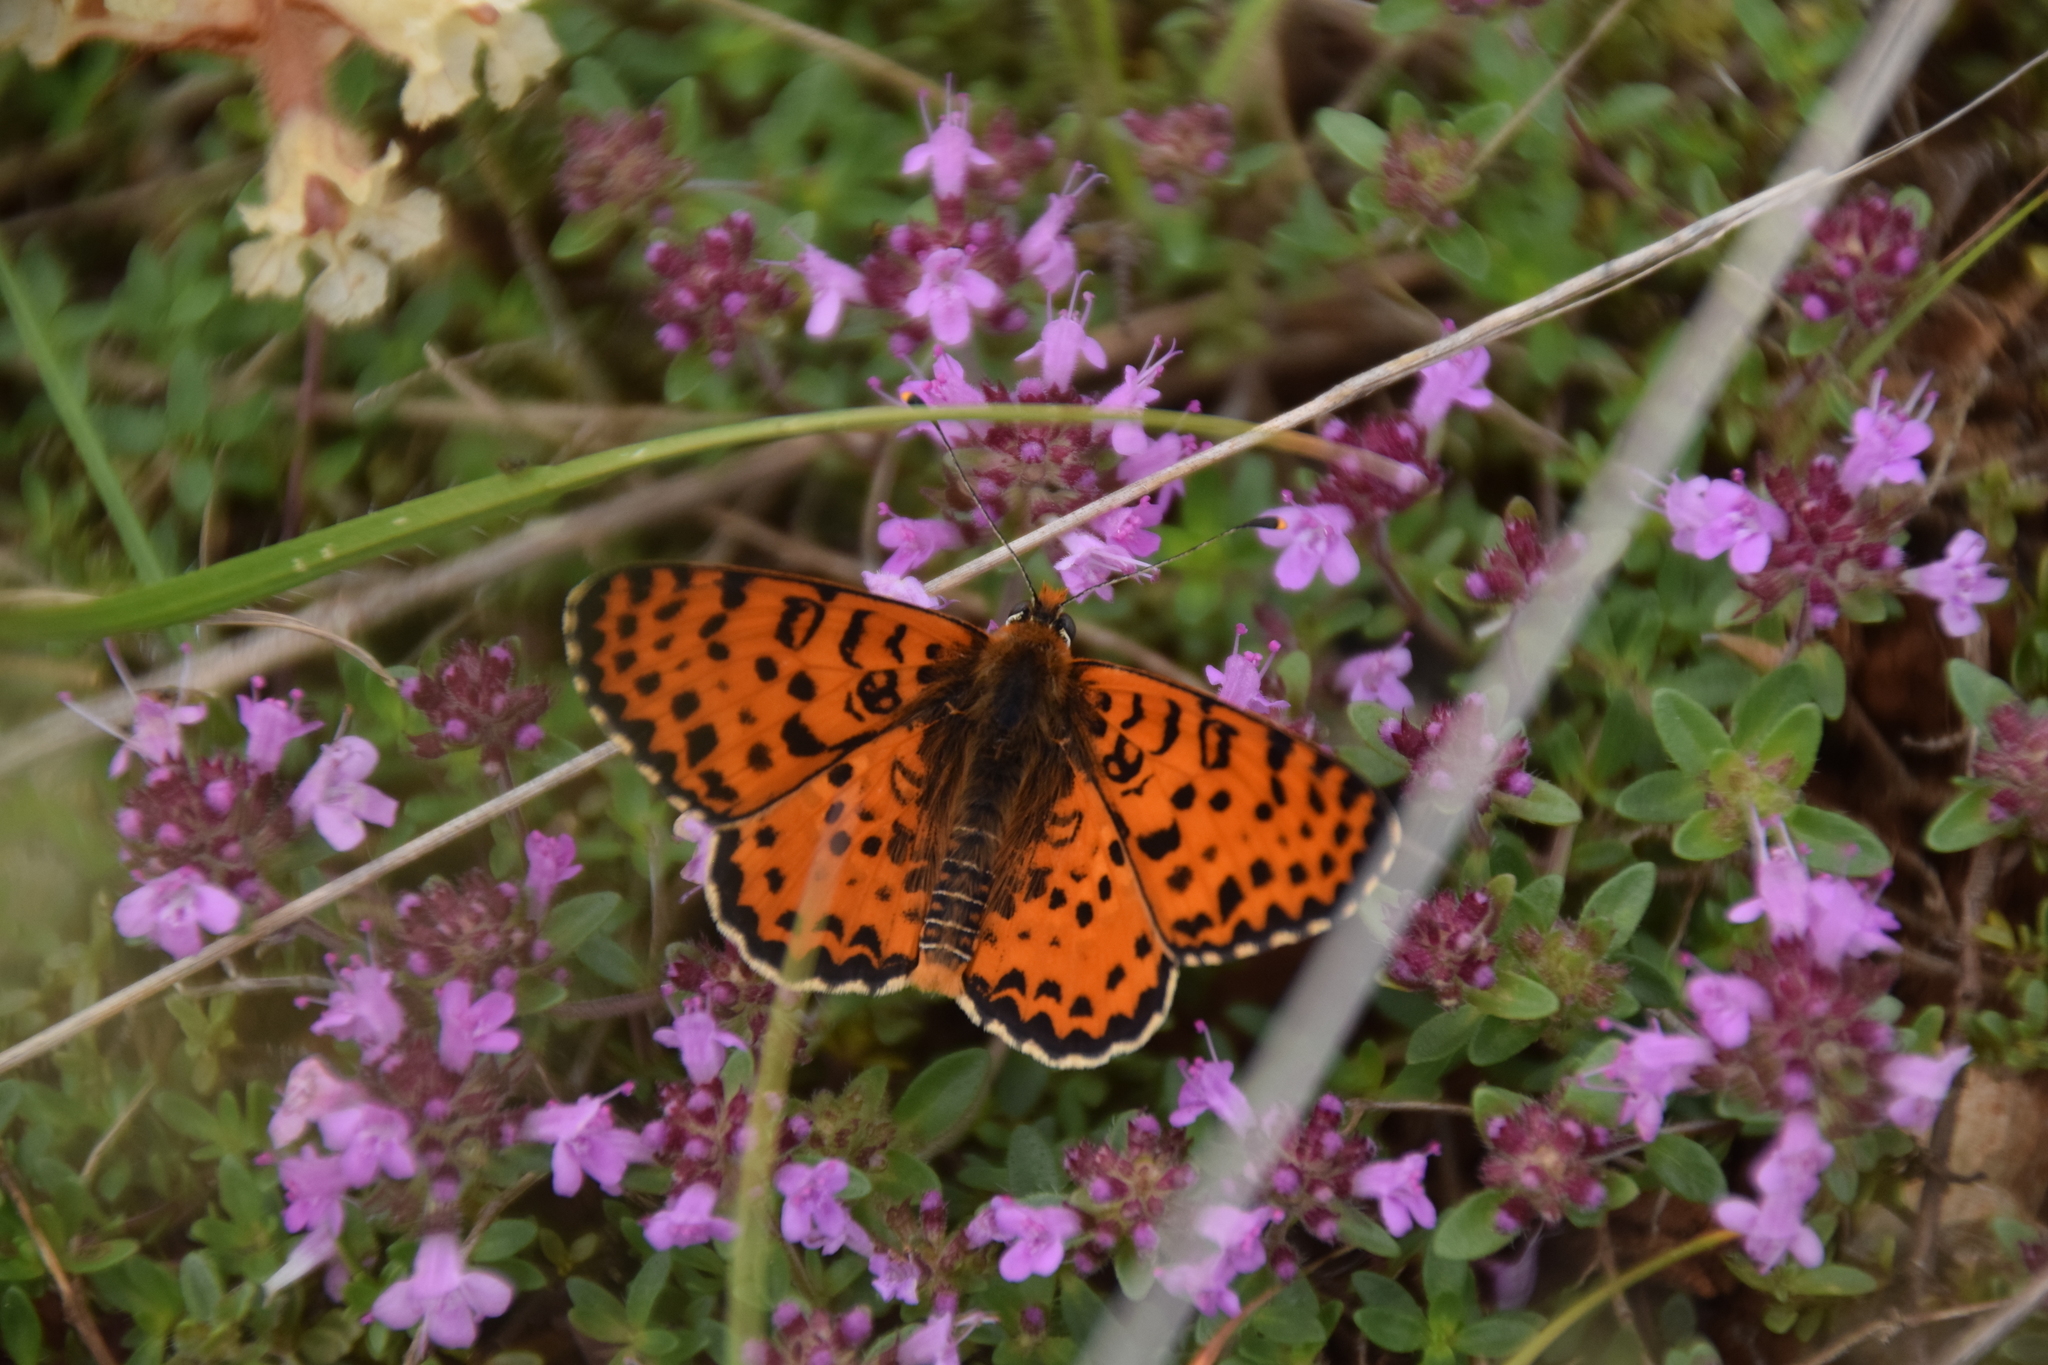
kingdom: Animalia
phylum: Arthropoda
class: Insecta
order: Lepidoptera
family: Nymphalidae
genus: Melitaea
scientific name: Melitaea didyma
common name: Spotted fritillary
